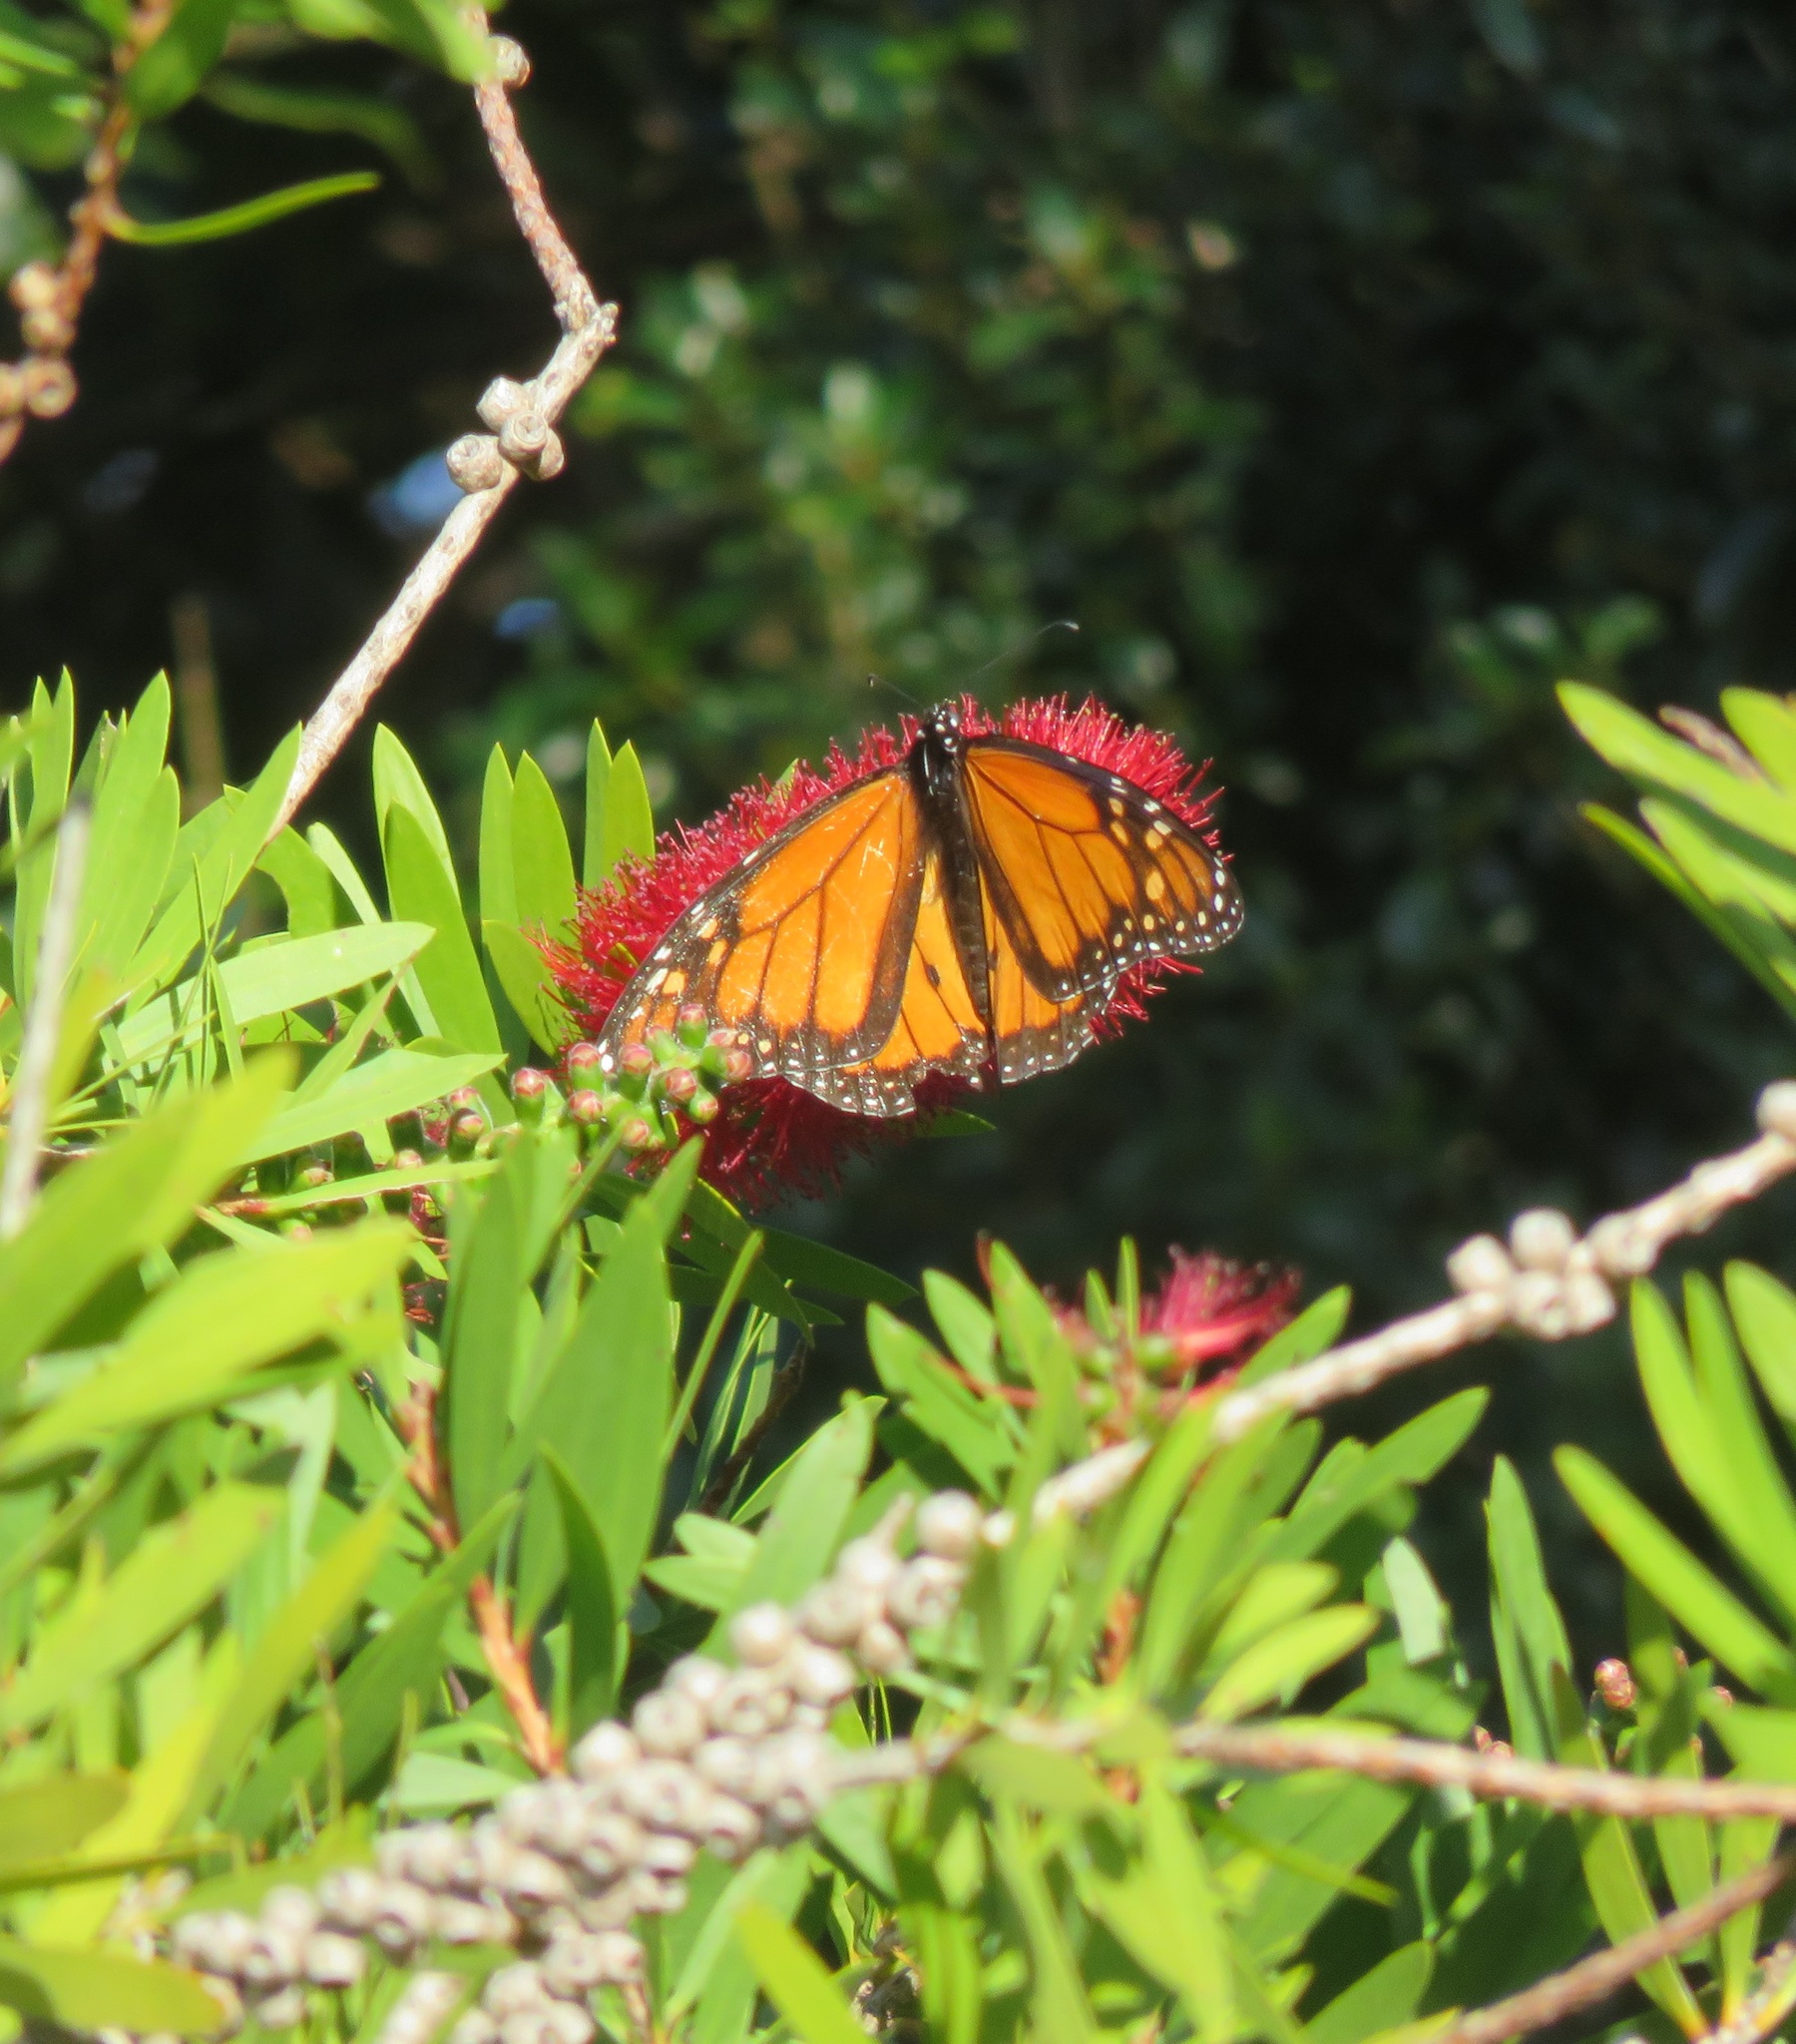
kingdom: Animalia
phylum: Arthropoda
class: Insecta
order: Lepidoptera
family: Nymphalidae
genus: Danaus
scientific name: Danaus plexippus
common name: Monarch
